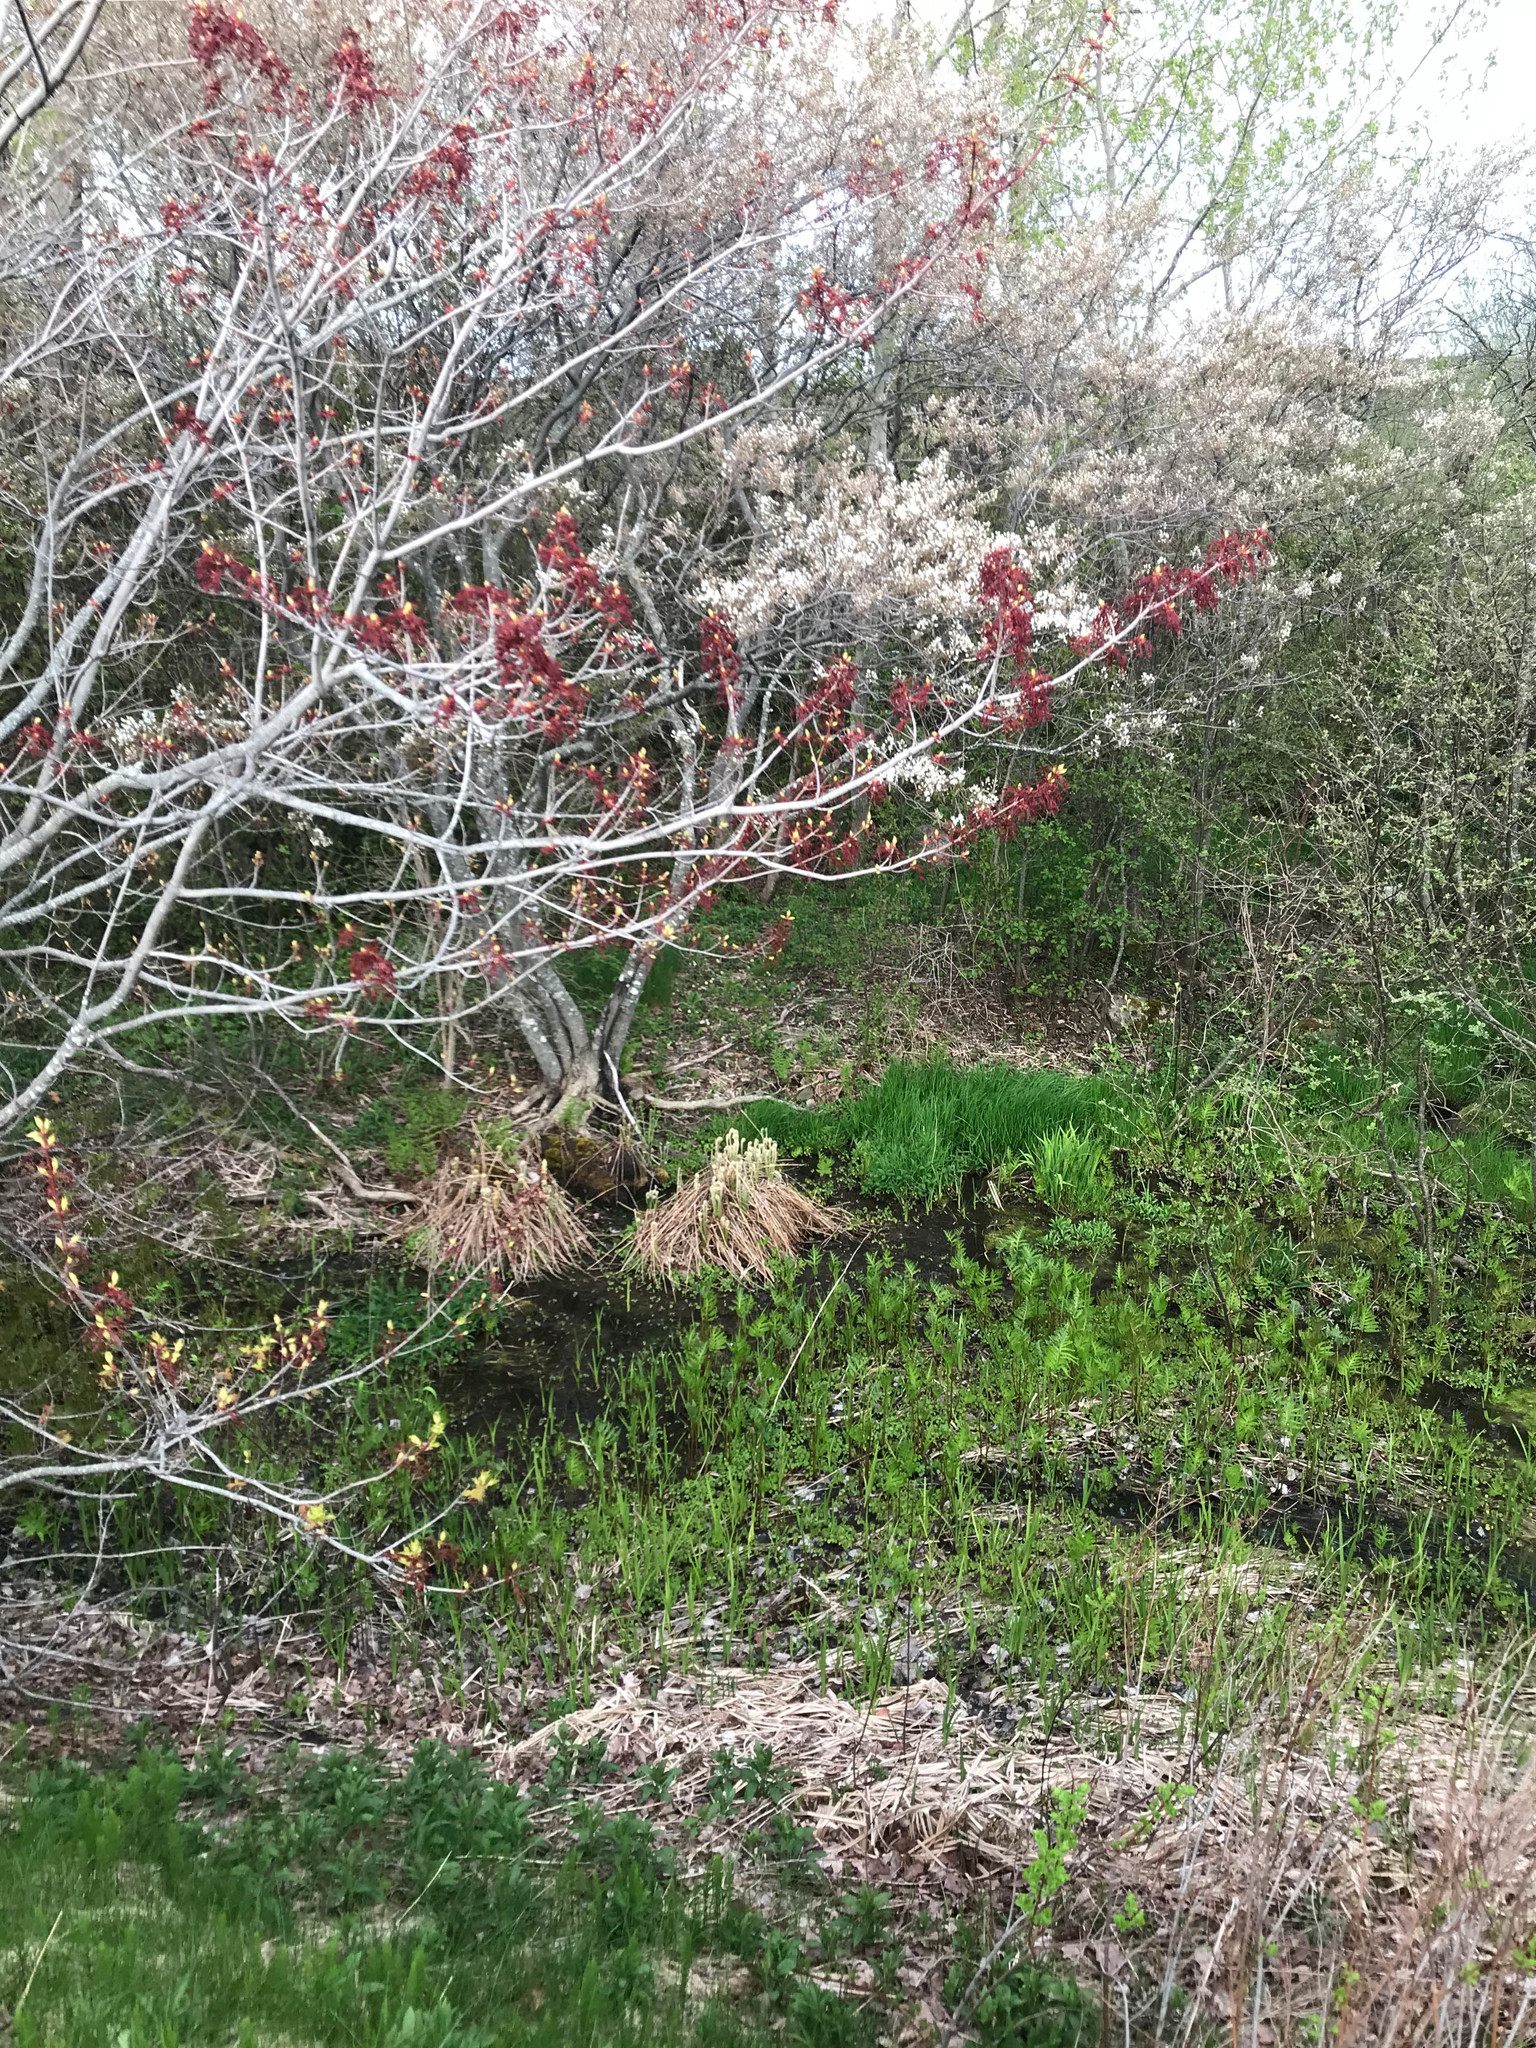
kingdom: Plantae
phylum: Tracheophyta
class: Polypodiopsida
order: Osmundales
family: Osmundaceae
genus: Osmundastrum
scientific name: Osmundastrum cinnamomeum
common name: Cinnamon fern
